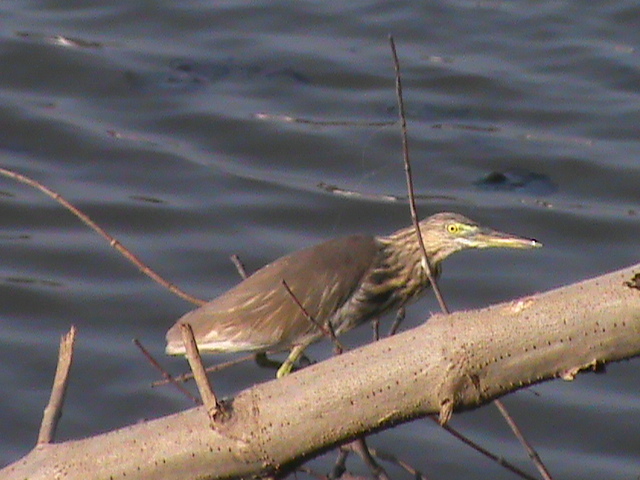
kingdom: Animalia
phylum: Chordata
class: Aves
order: Pelecaniformes
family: Ardeidae
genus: Ardeola
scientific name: Ardeola grayii
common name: Indian pond heron
